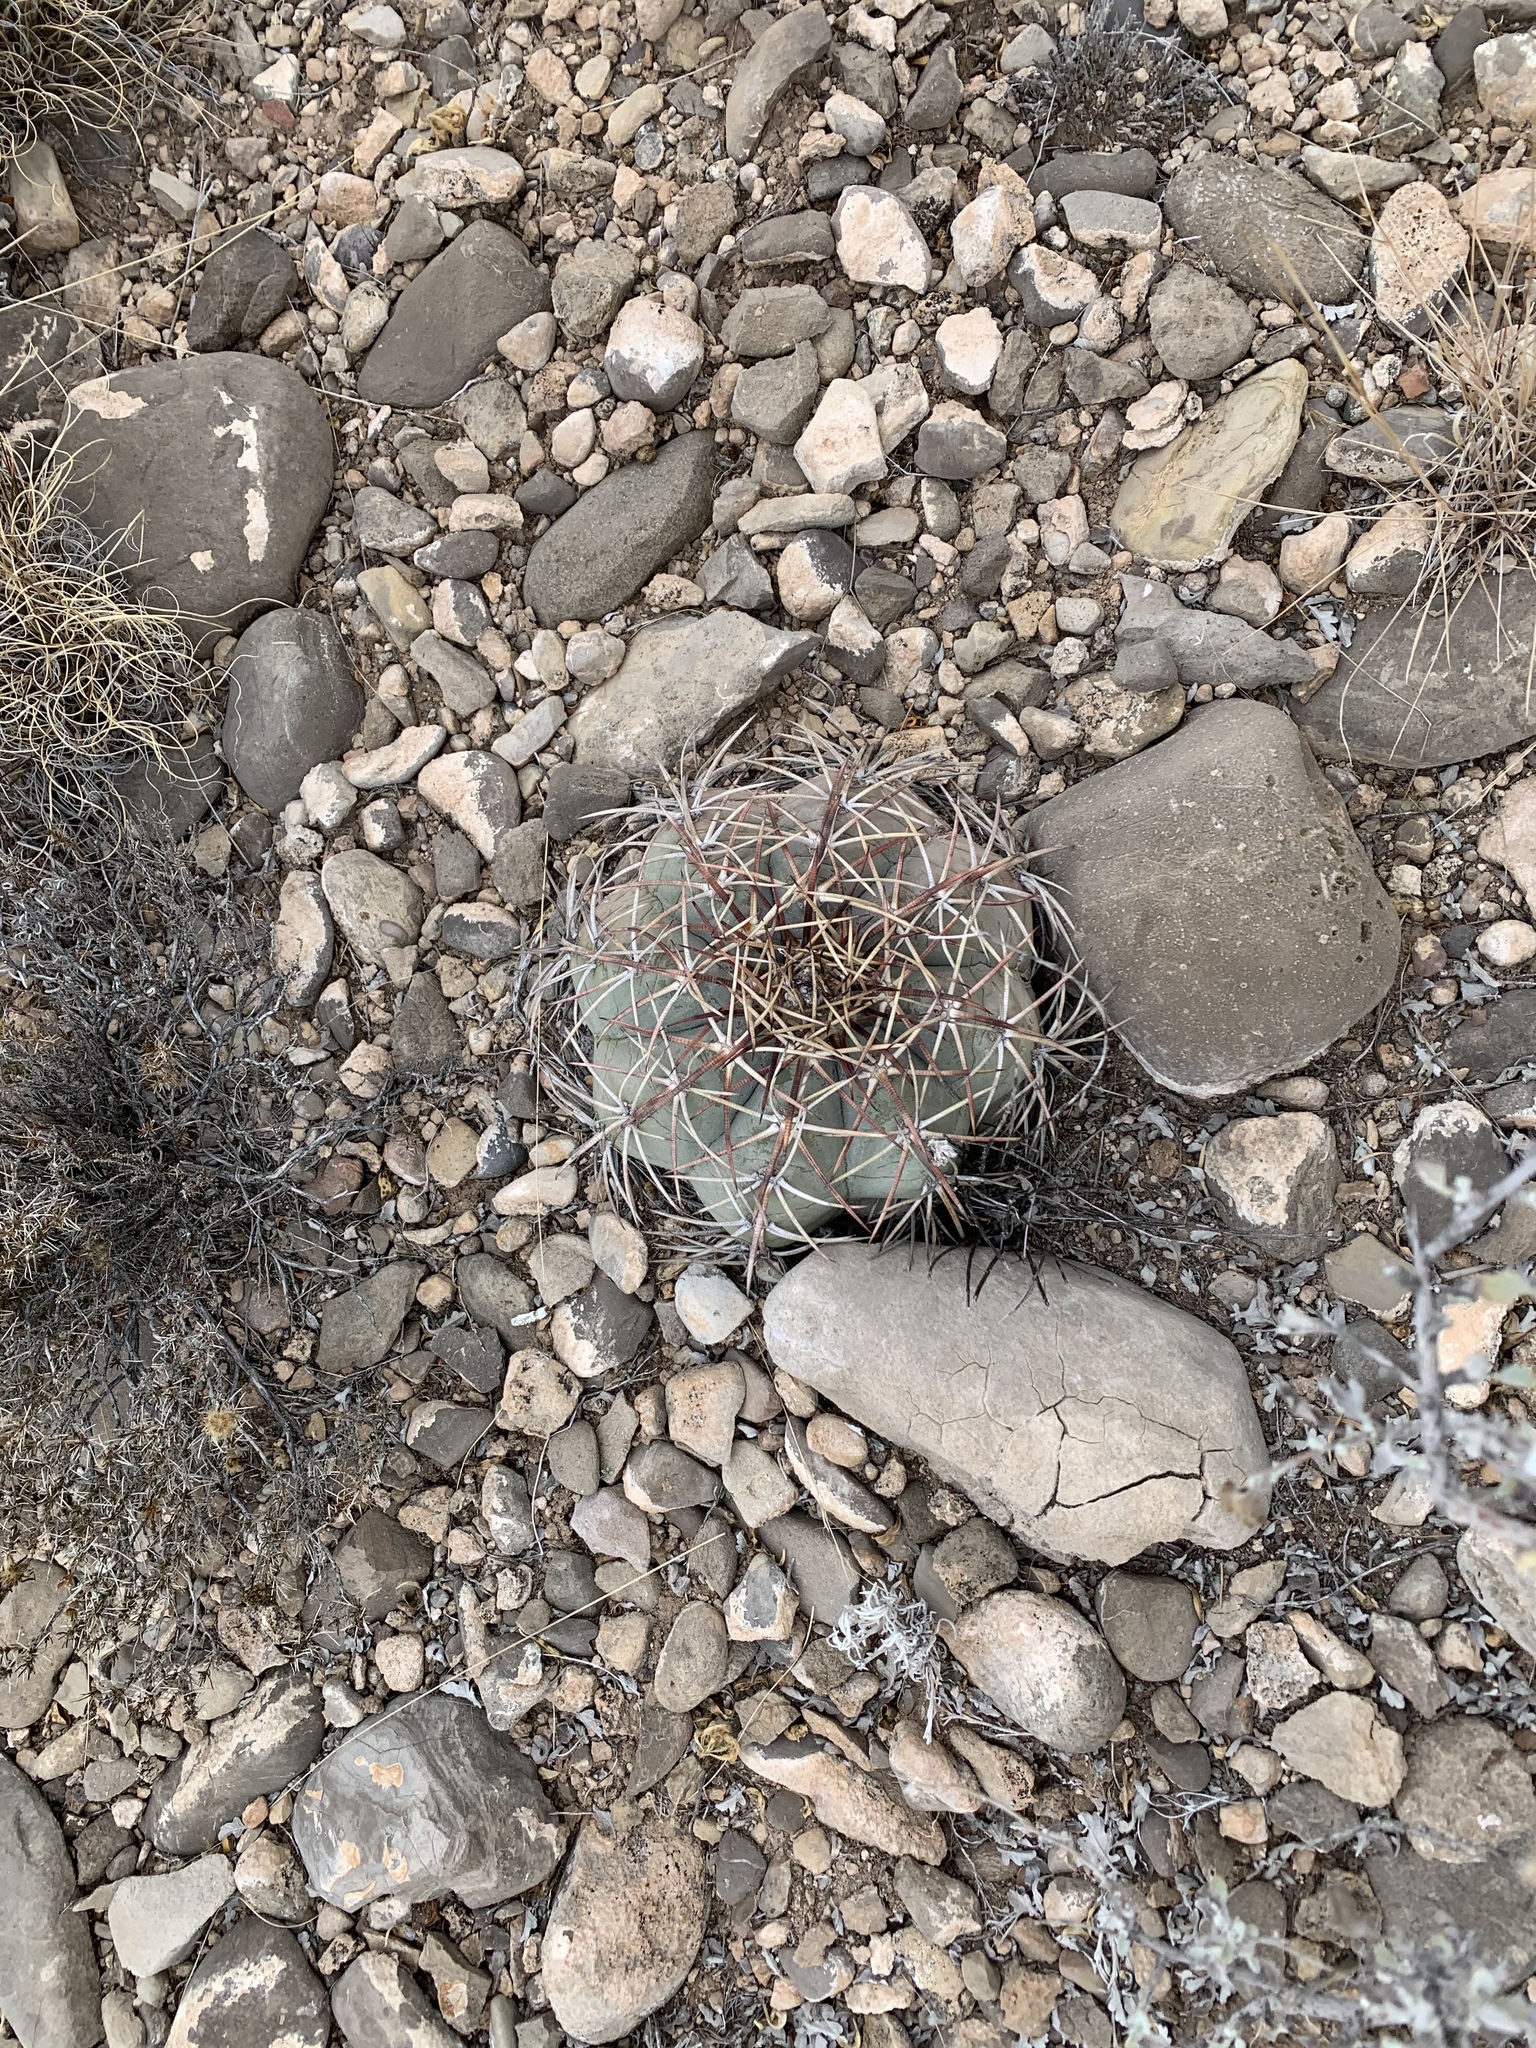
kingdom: Plantae
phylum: Tracheophyta
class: Magnoliopsida
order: Caryophyllales
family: Cactaceae
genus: Echinocactus
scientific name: Echinocactus horizonthalonius
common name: Devilshead
